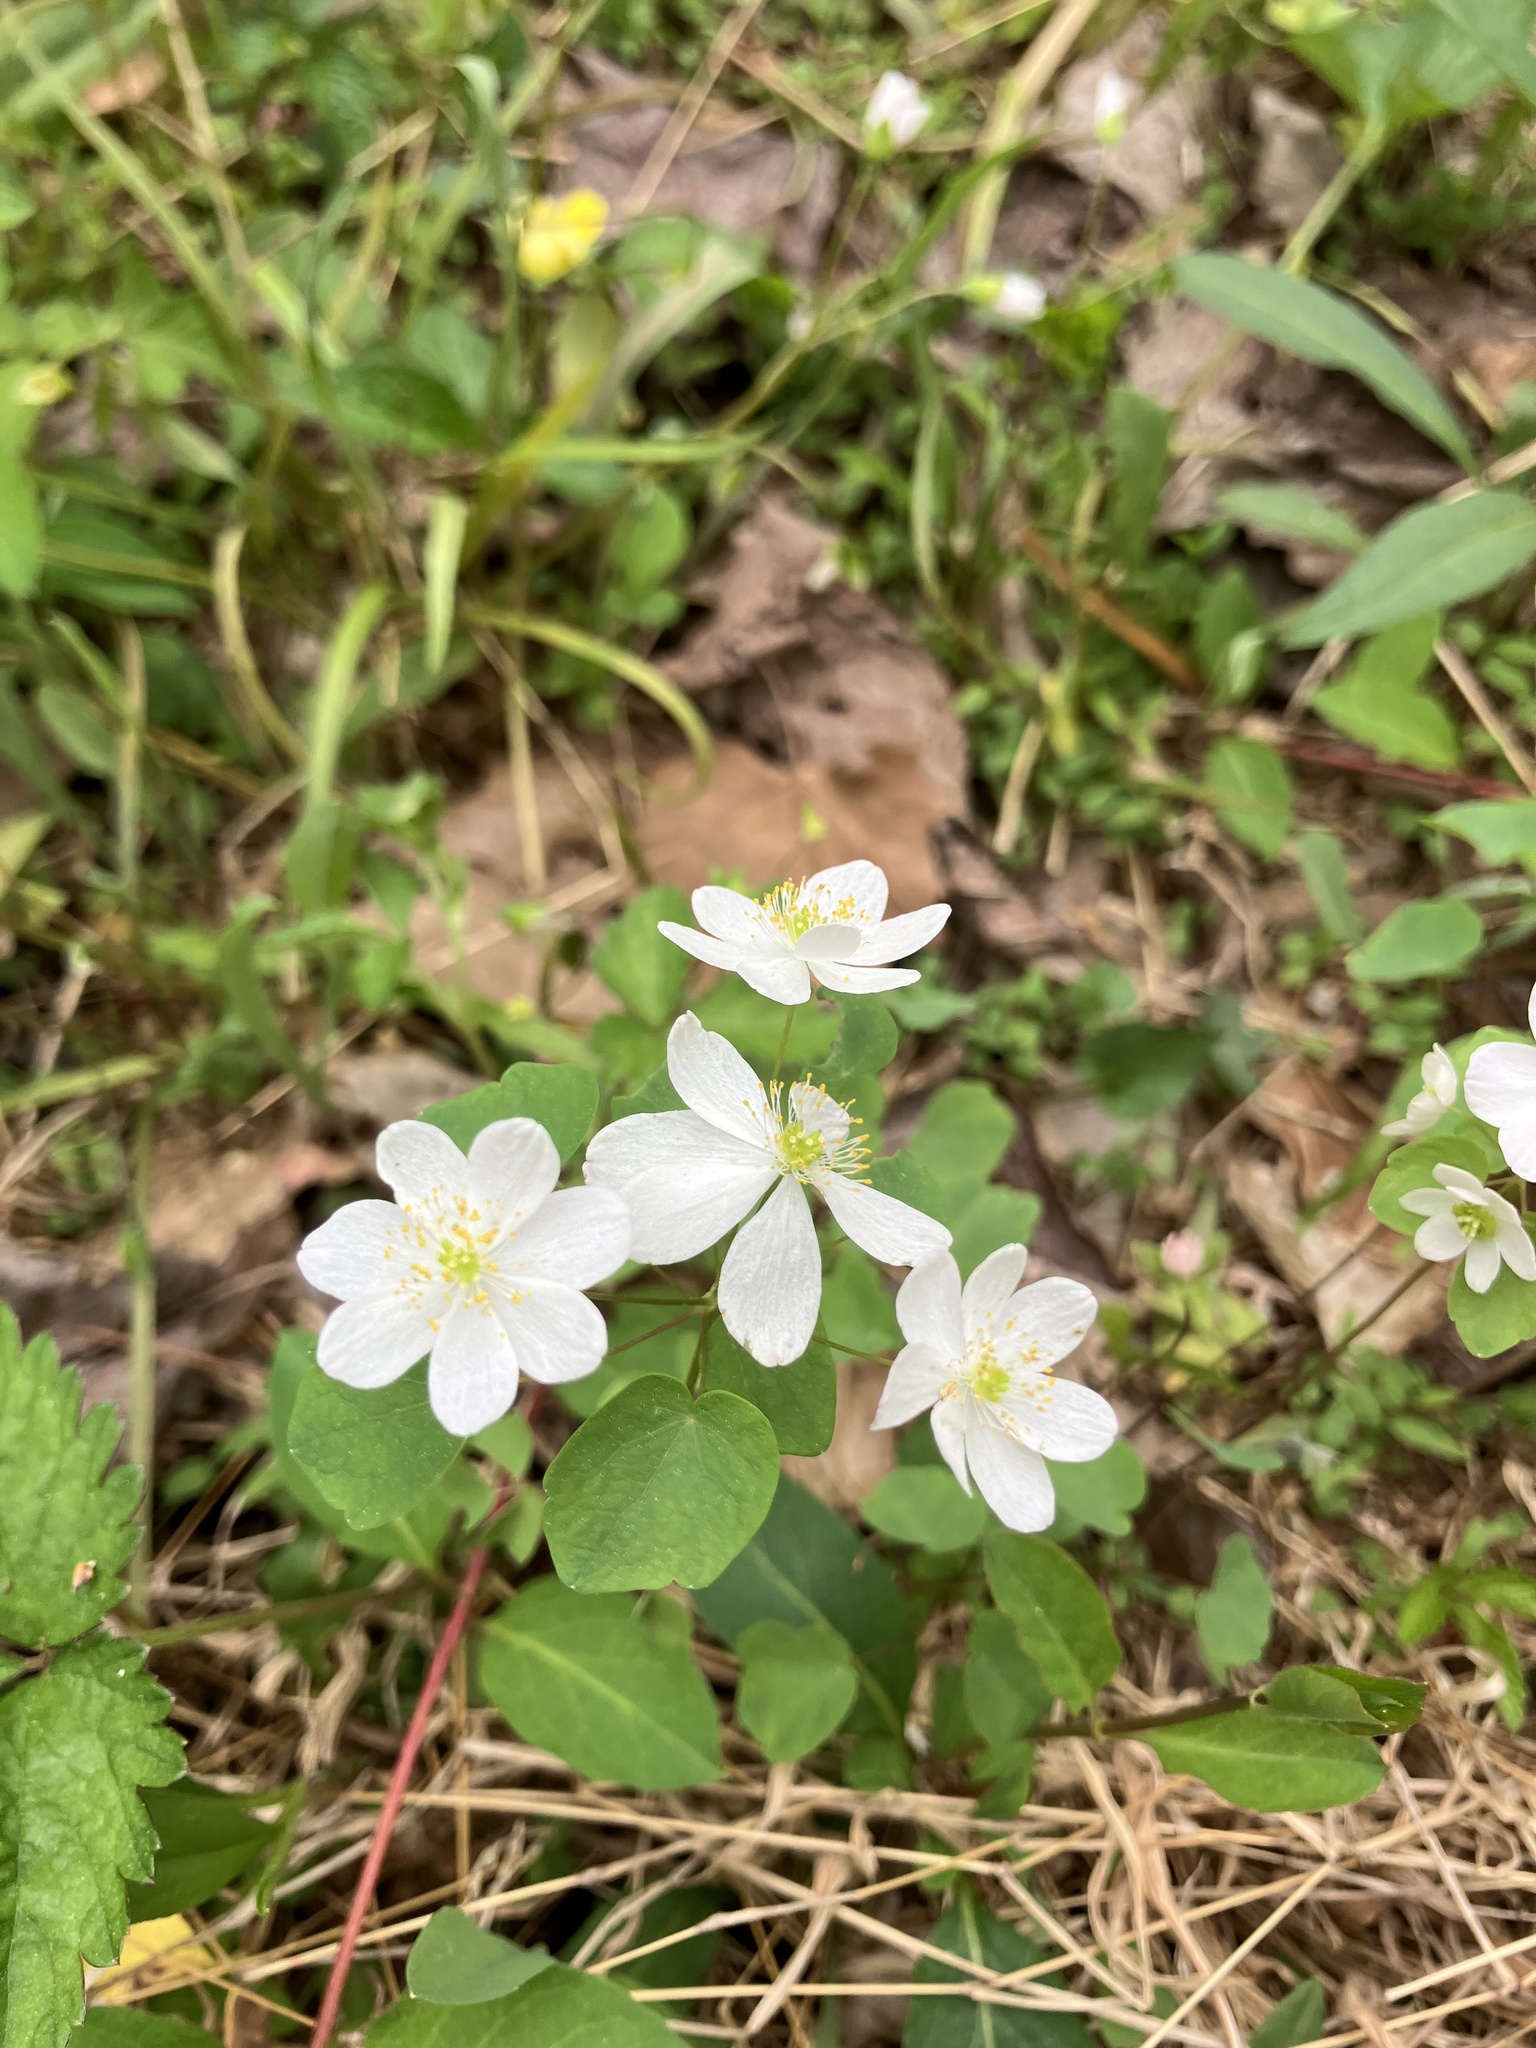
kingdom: Plantae
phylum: Tracheophyta
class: Magnoliopsida
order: Ranunculales
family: Ranunculaceae
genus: Thalictrum
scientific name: Thalictrum thalictroides
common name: Rue-anemone
